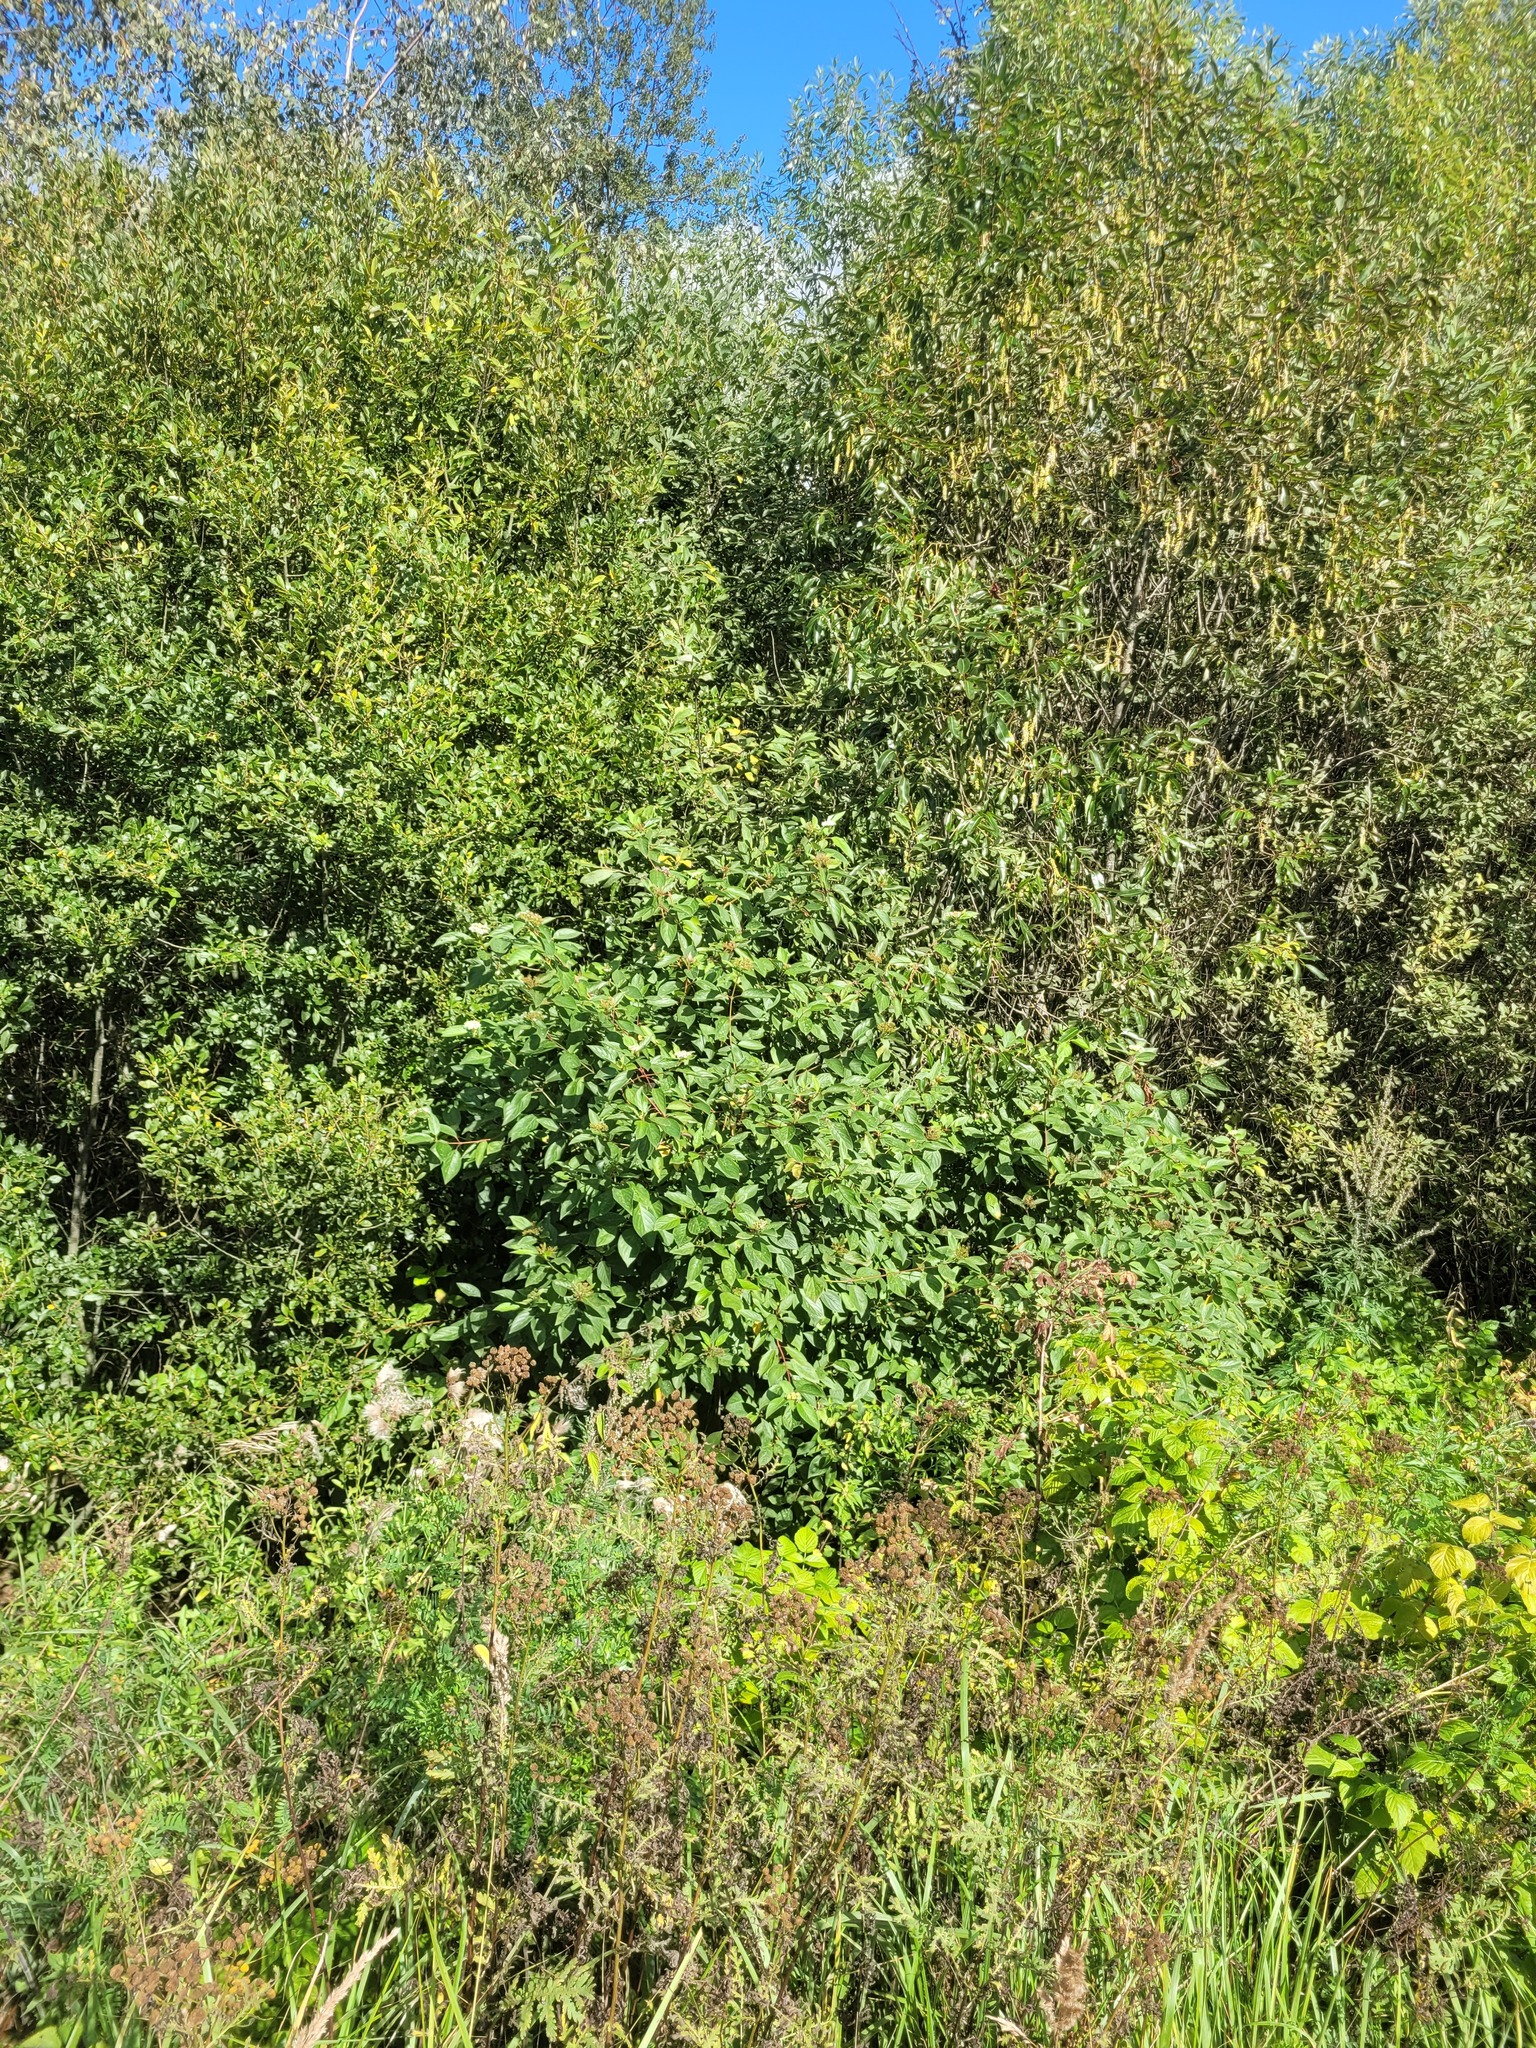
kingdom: Plantae
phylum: Tracheophyta
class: Magnoliopsida
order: Cornales
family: Cornaceae
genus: Cornus
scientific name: Cornus alba
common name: White dogwood
